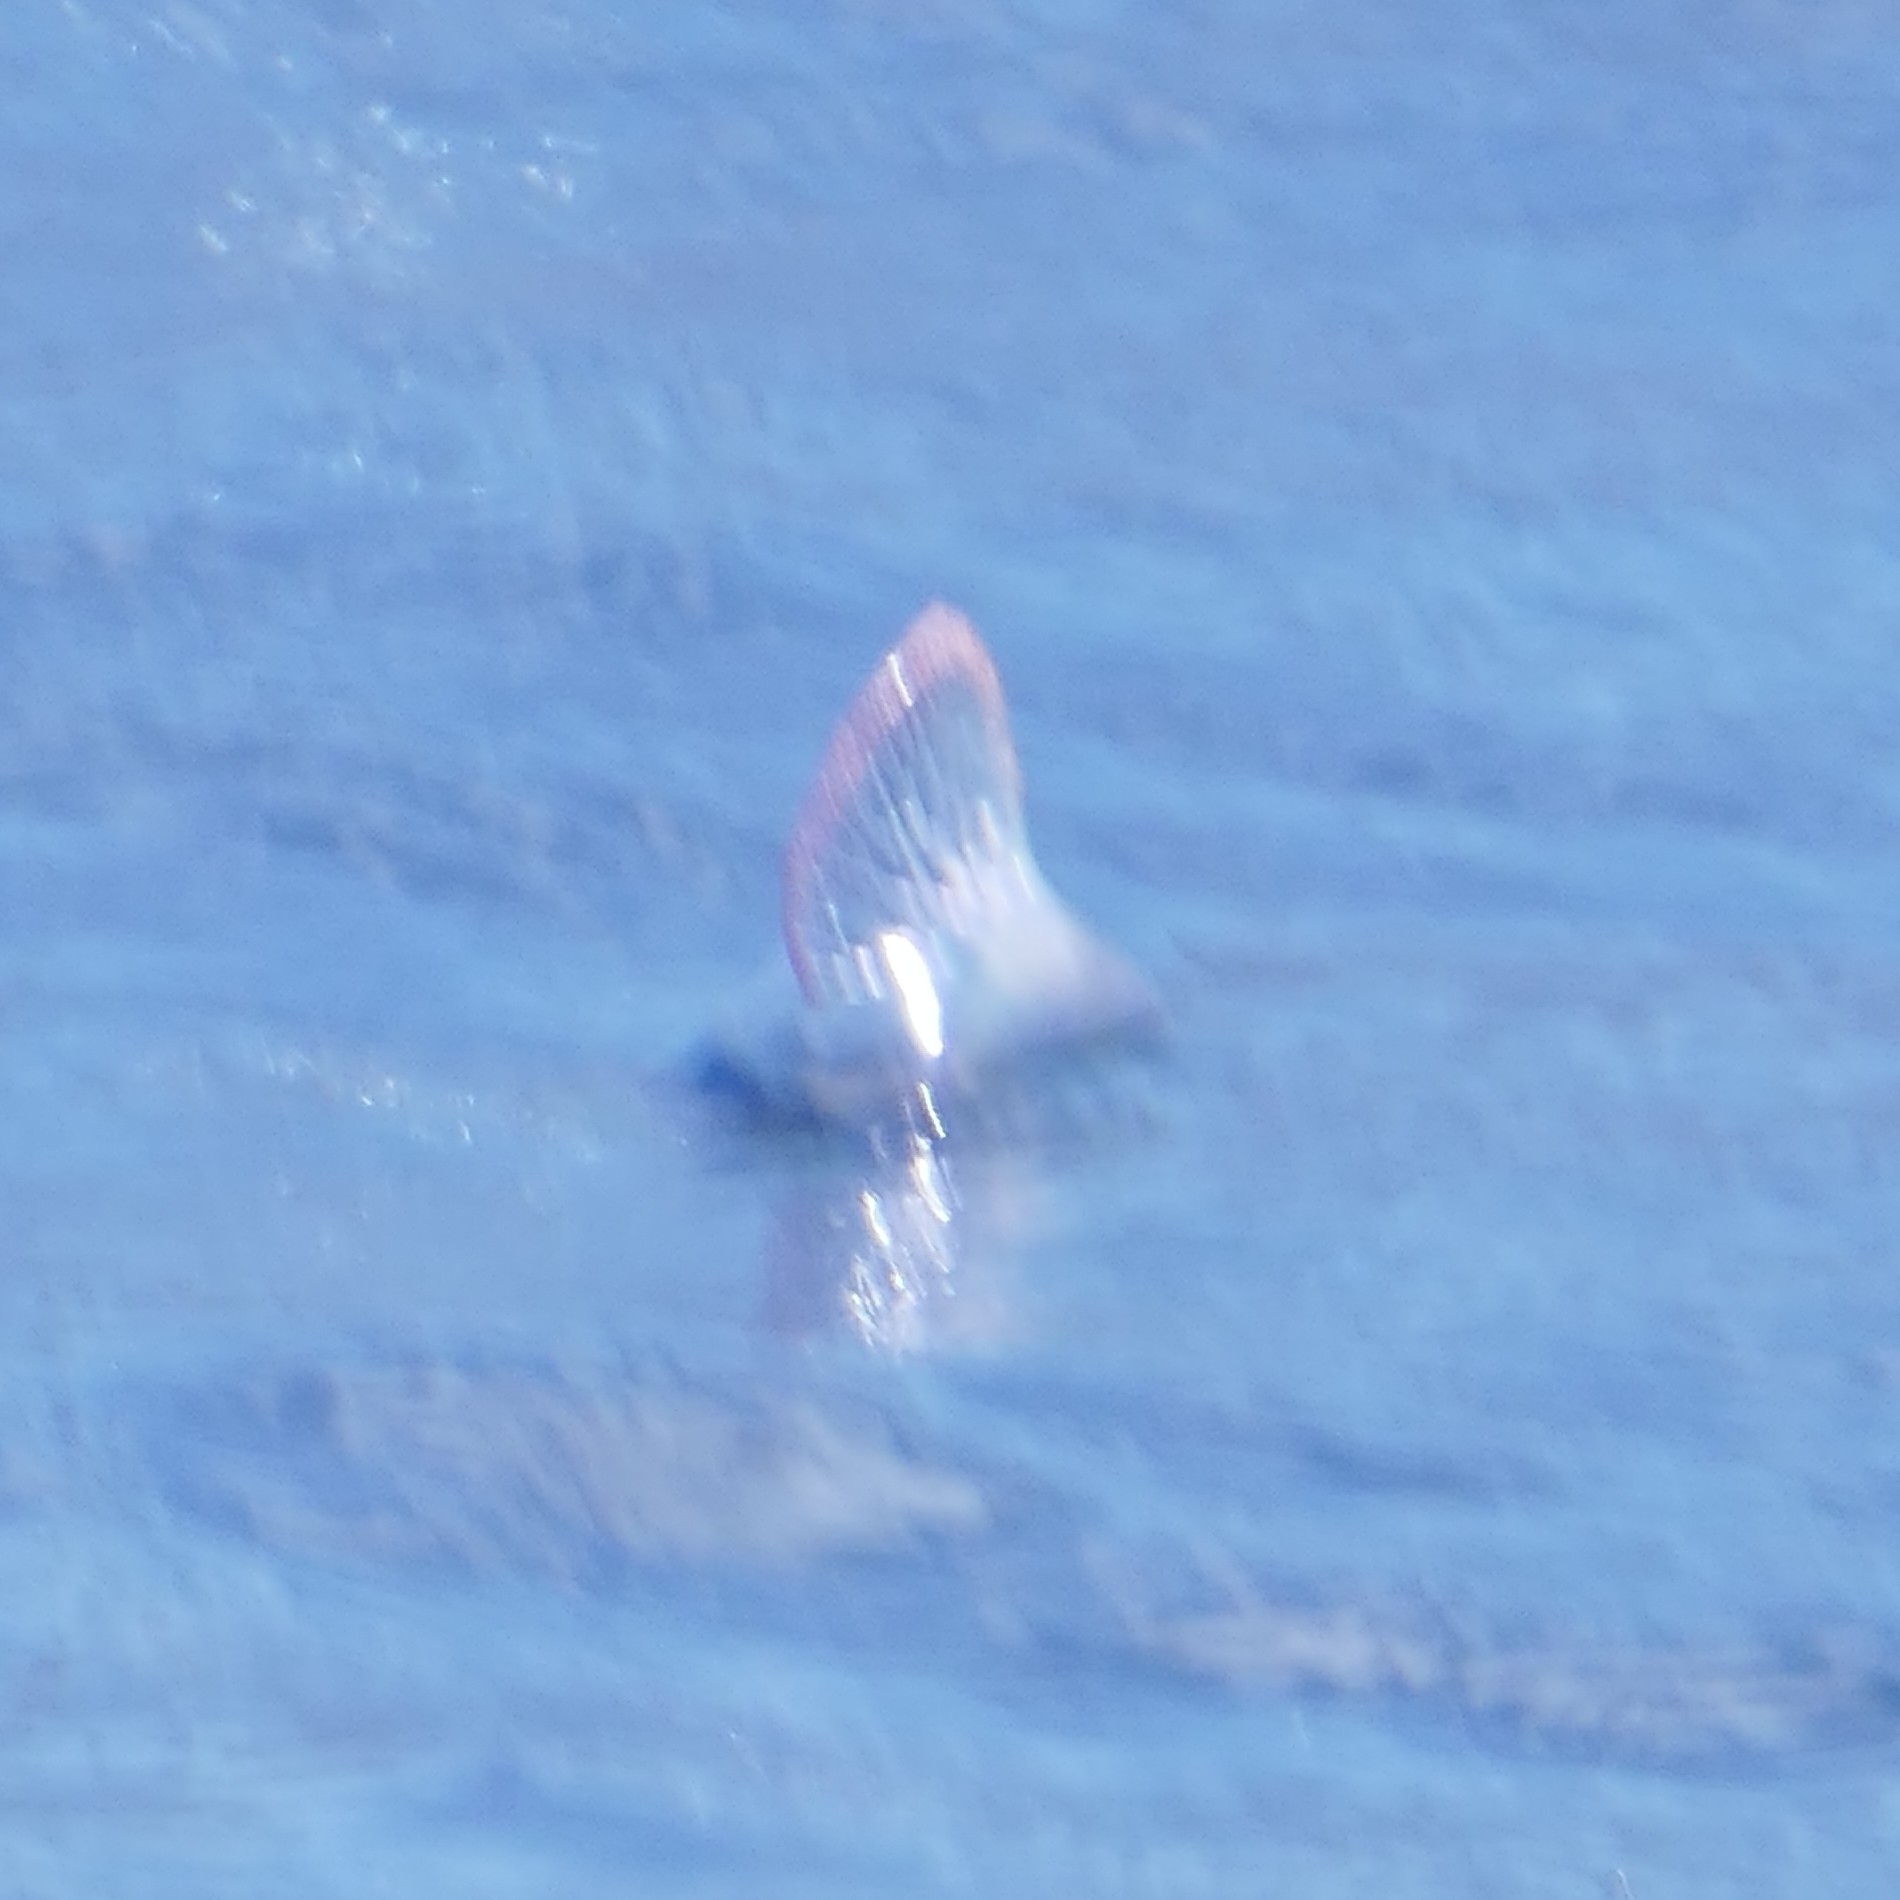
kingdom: Animalia
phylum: Cnidaria
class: Hydrozoa
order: Siphonophorae
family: Physaliidae
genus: Physalia
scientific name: Physalia physalis
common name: Portuguese man-of-war
